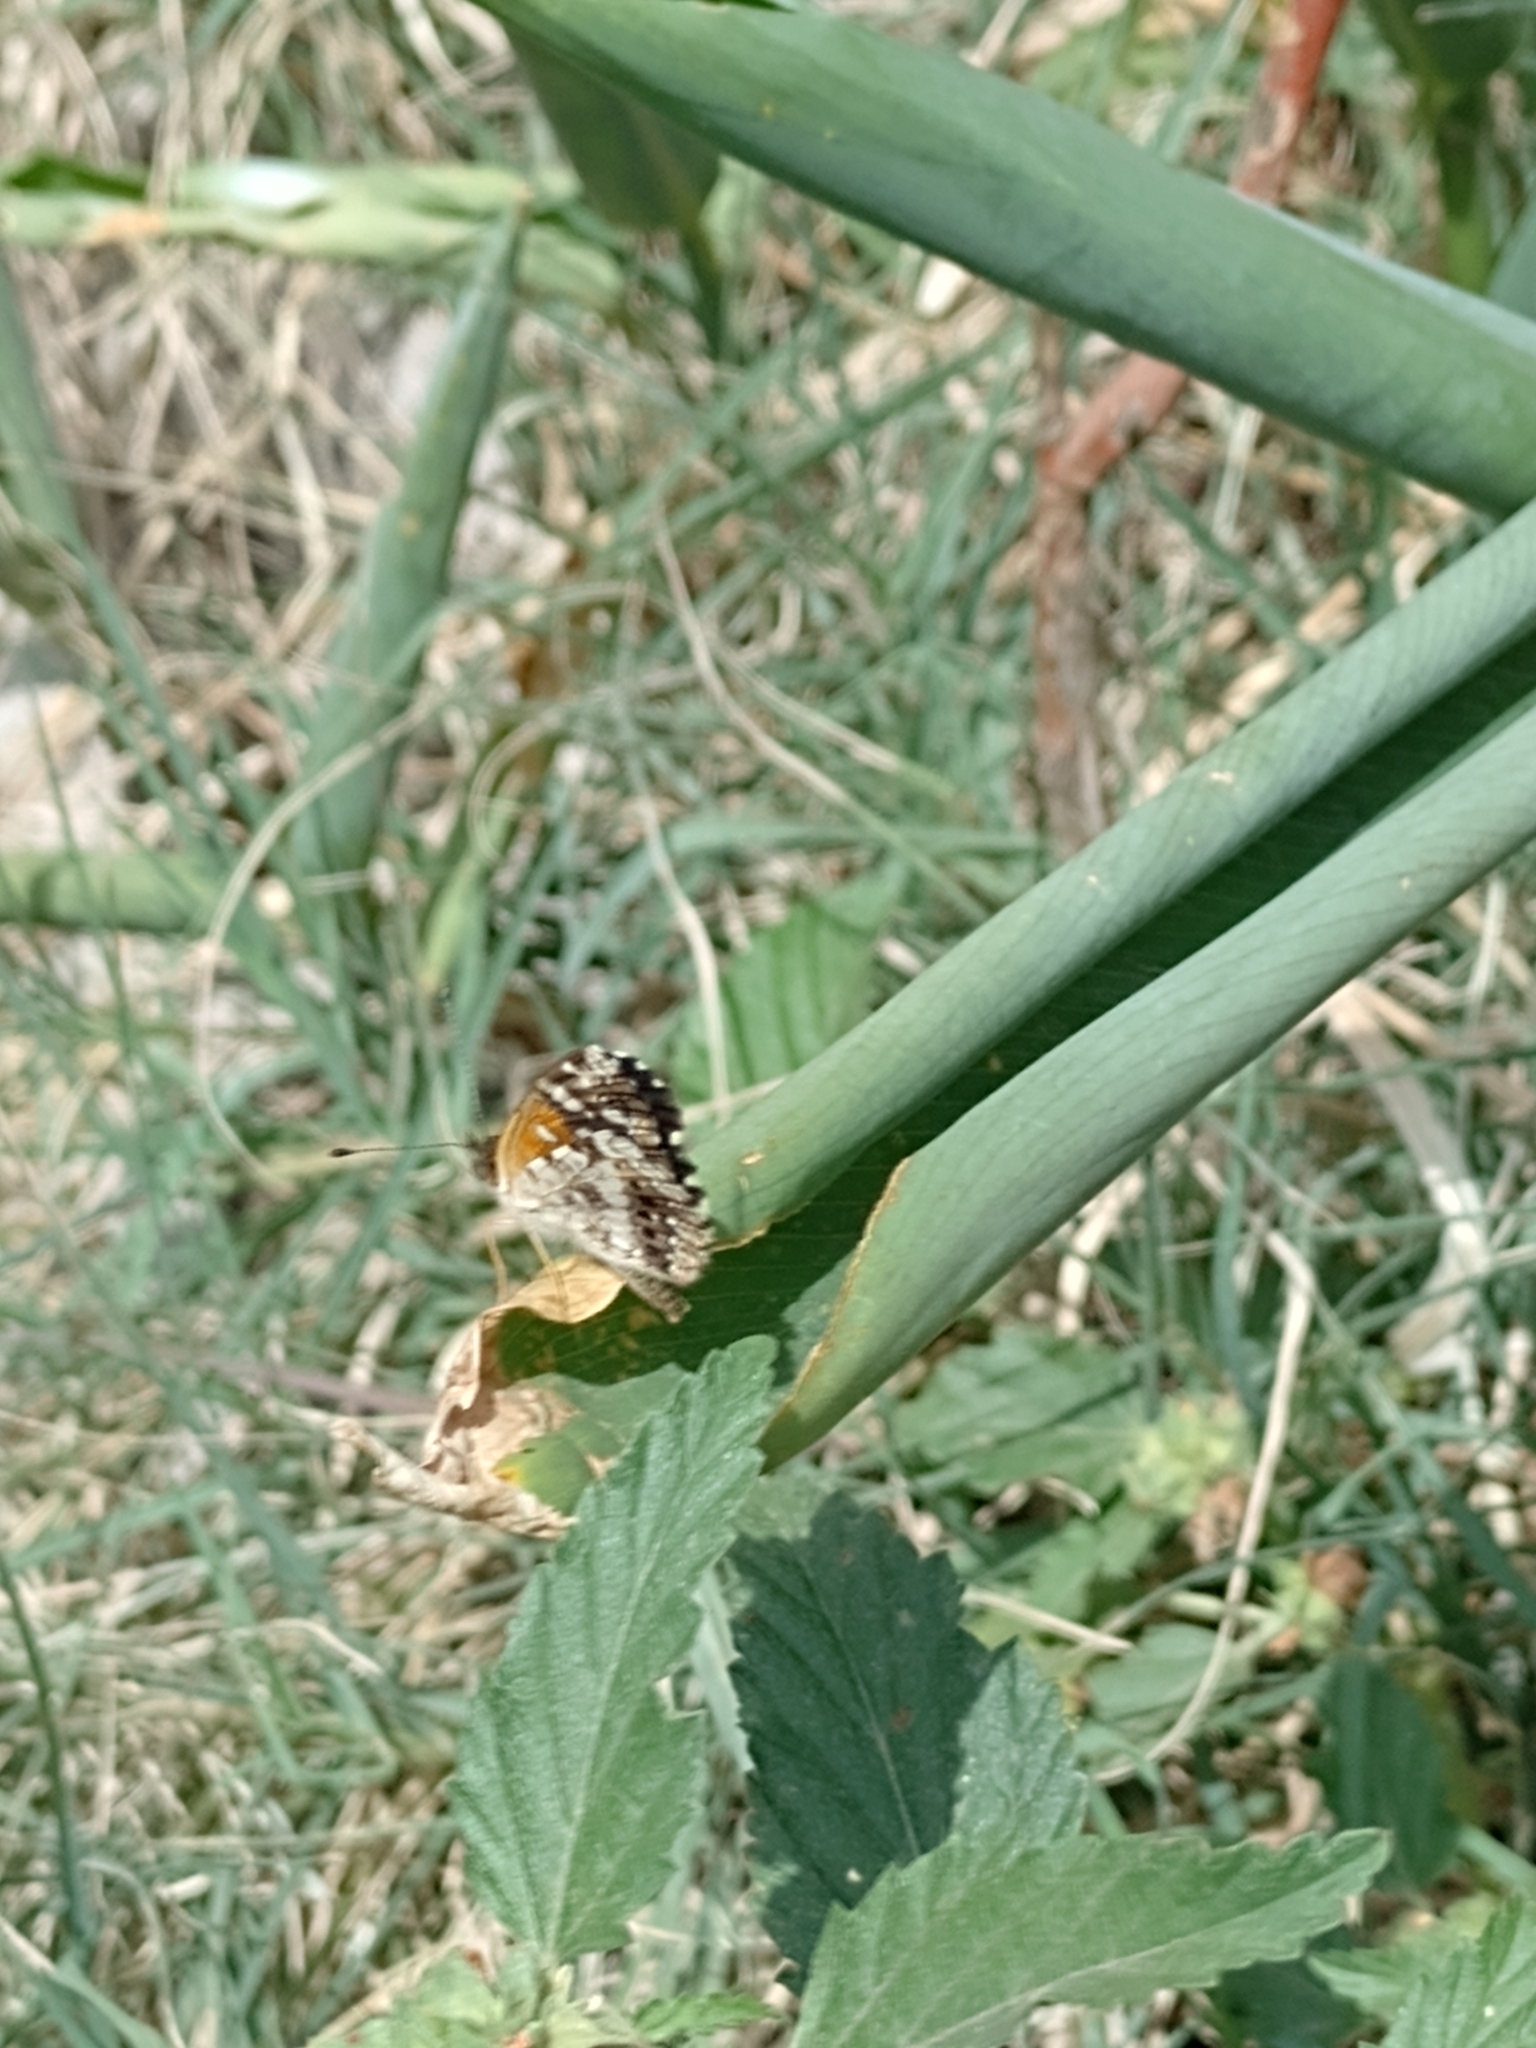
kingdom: Animalia
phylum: Arthropoda
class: Insecta
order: Lepidoptera
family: Nymphalidae
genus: Ortilia
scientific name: Ortilia ithra
